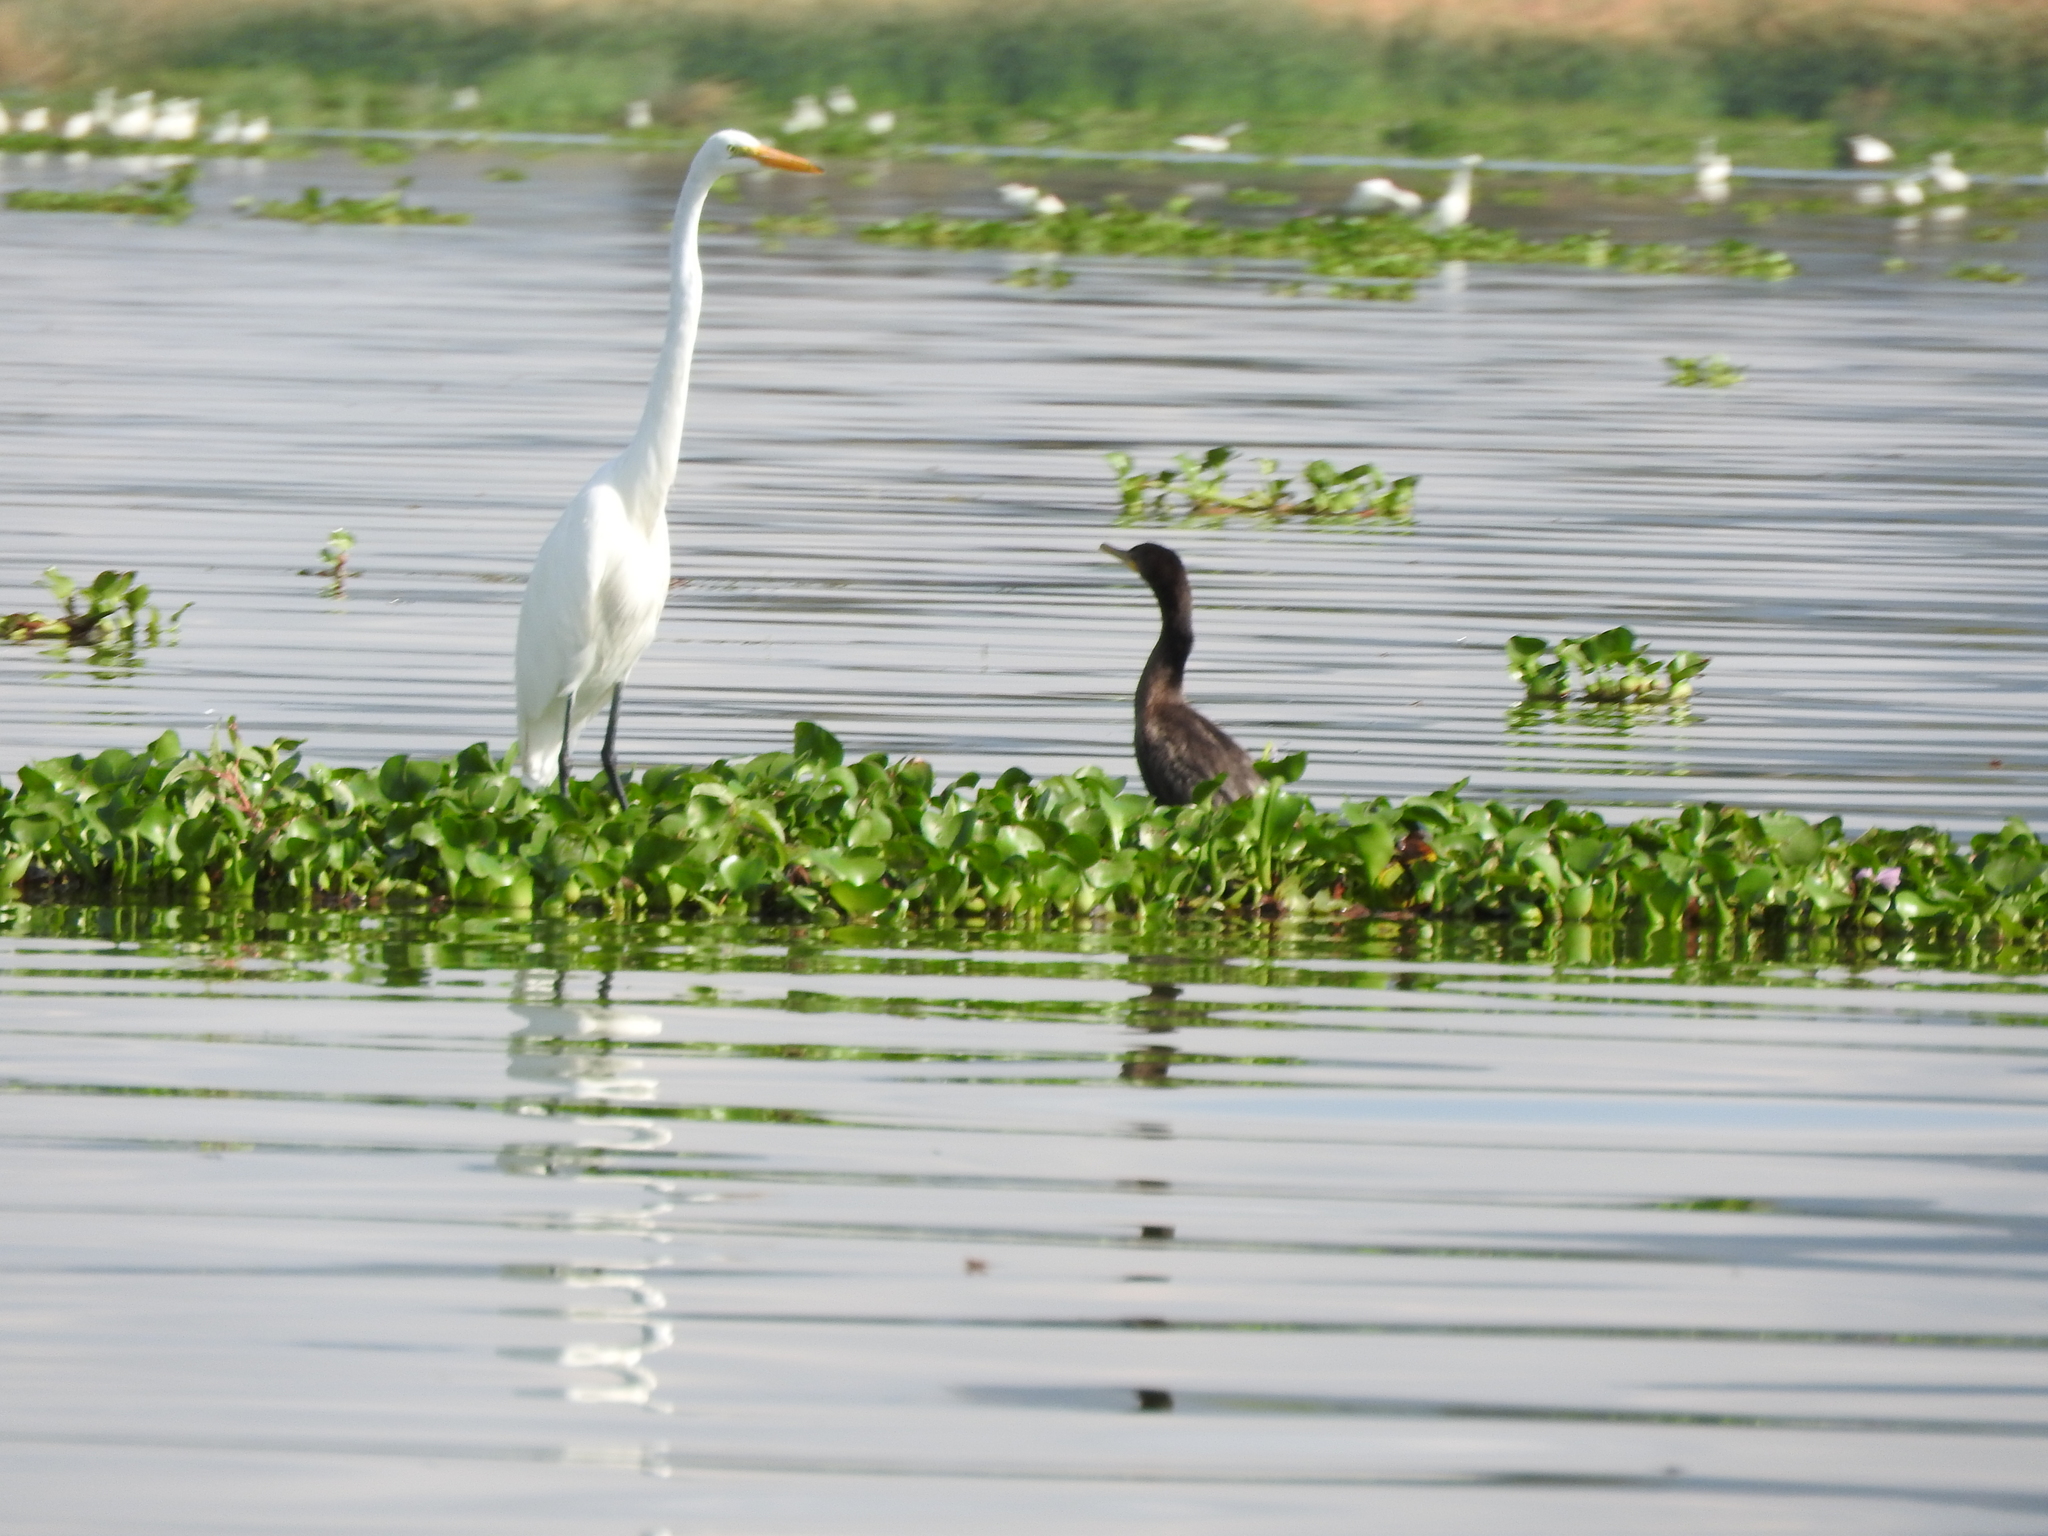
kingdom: Animalia
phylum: Chordata
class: Aves
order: Pelecaniformes
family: Ardeidae
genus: Ardea
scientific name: Ardea alba
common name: Great egret
